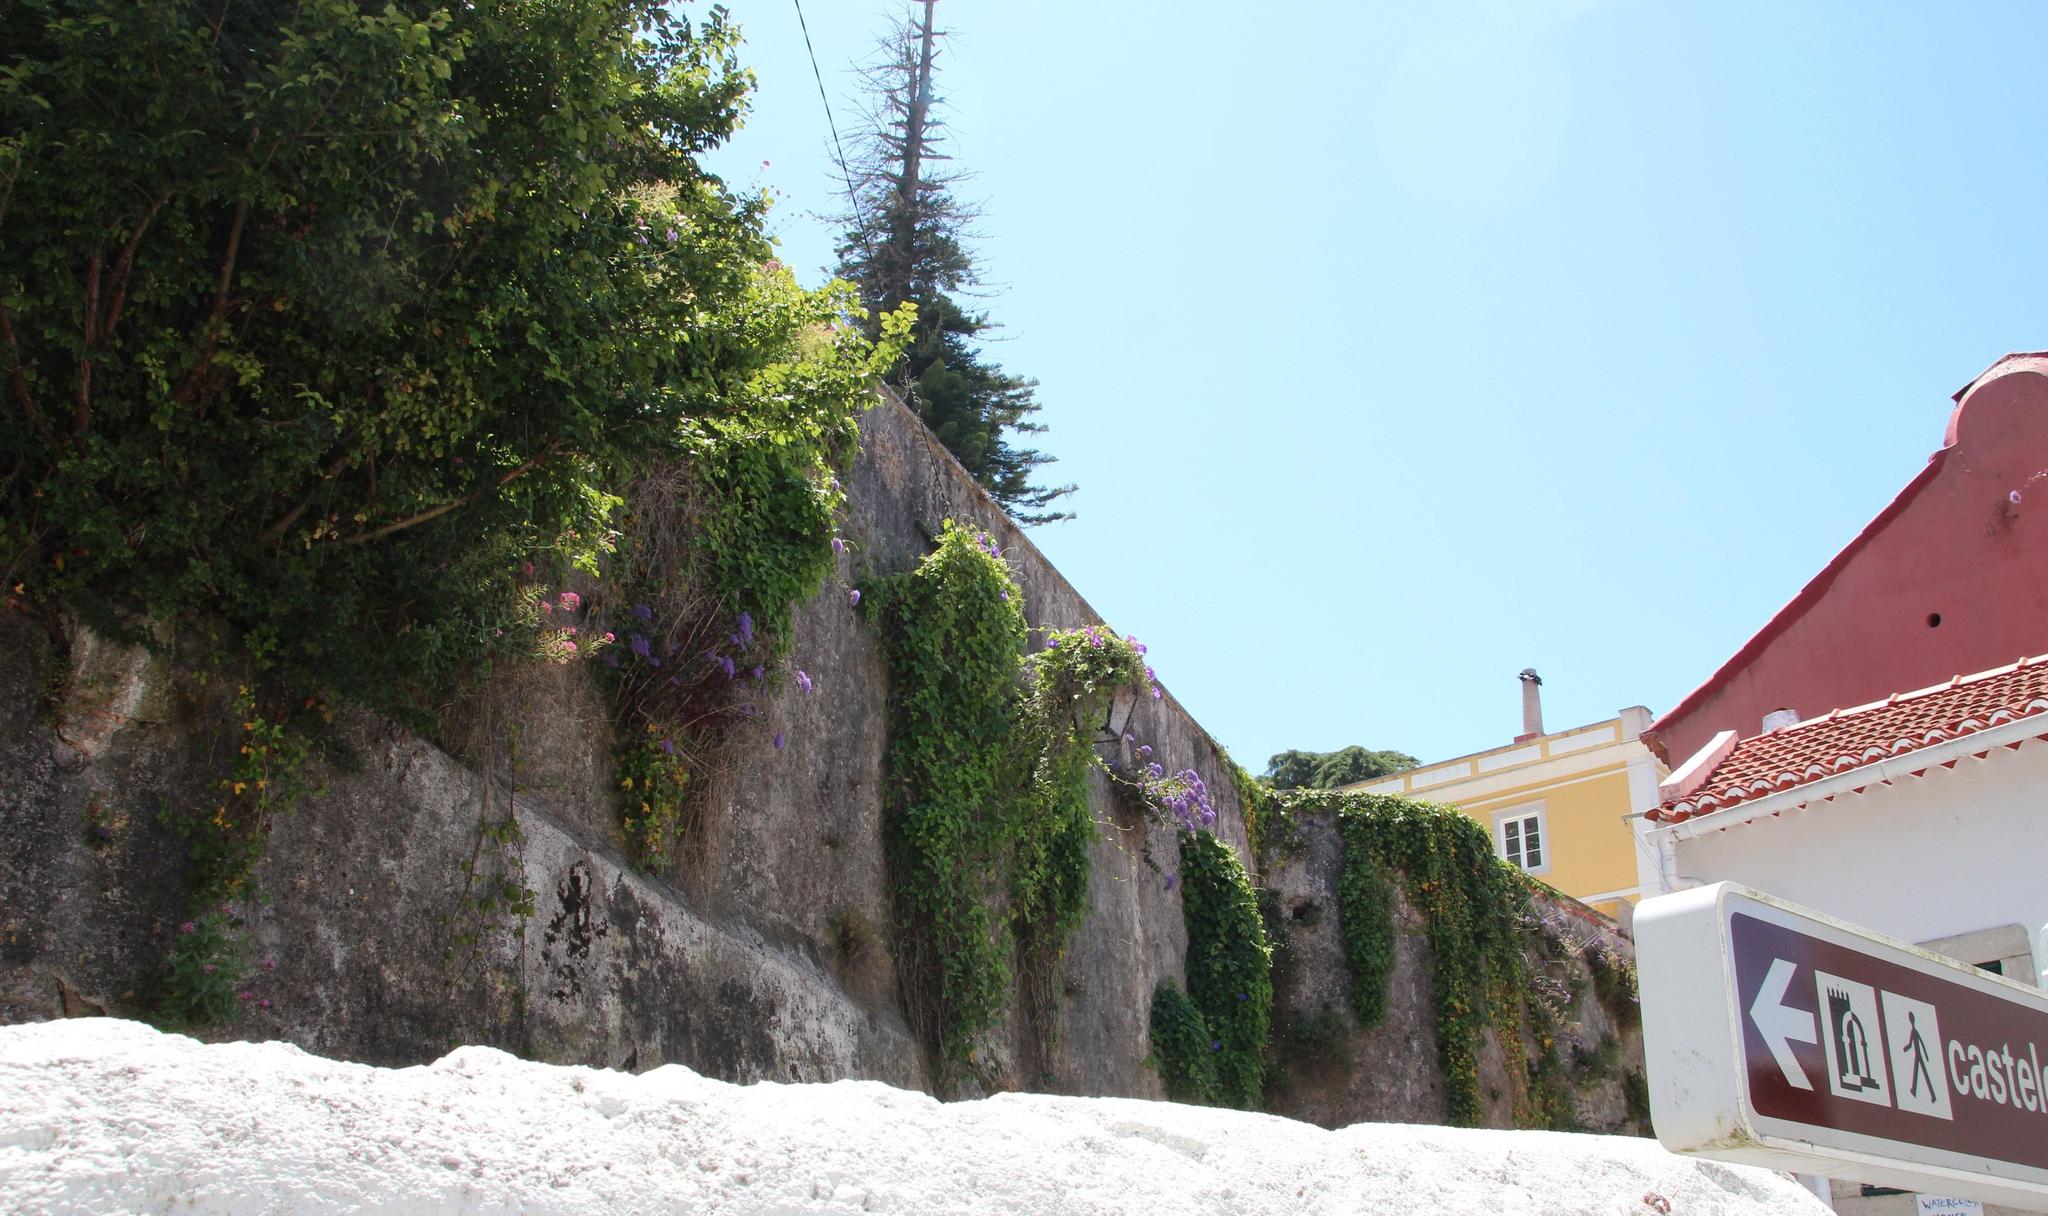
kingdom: Plantae
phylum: Tracheophyta
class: Magnoliopsida
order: Solanales
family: Convolvulaceae
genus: Ipomoea
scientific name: Ipomoea indica
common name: Blue dawnflower
